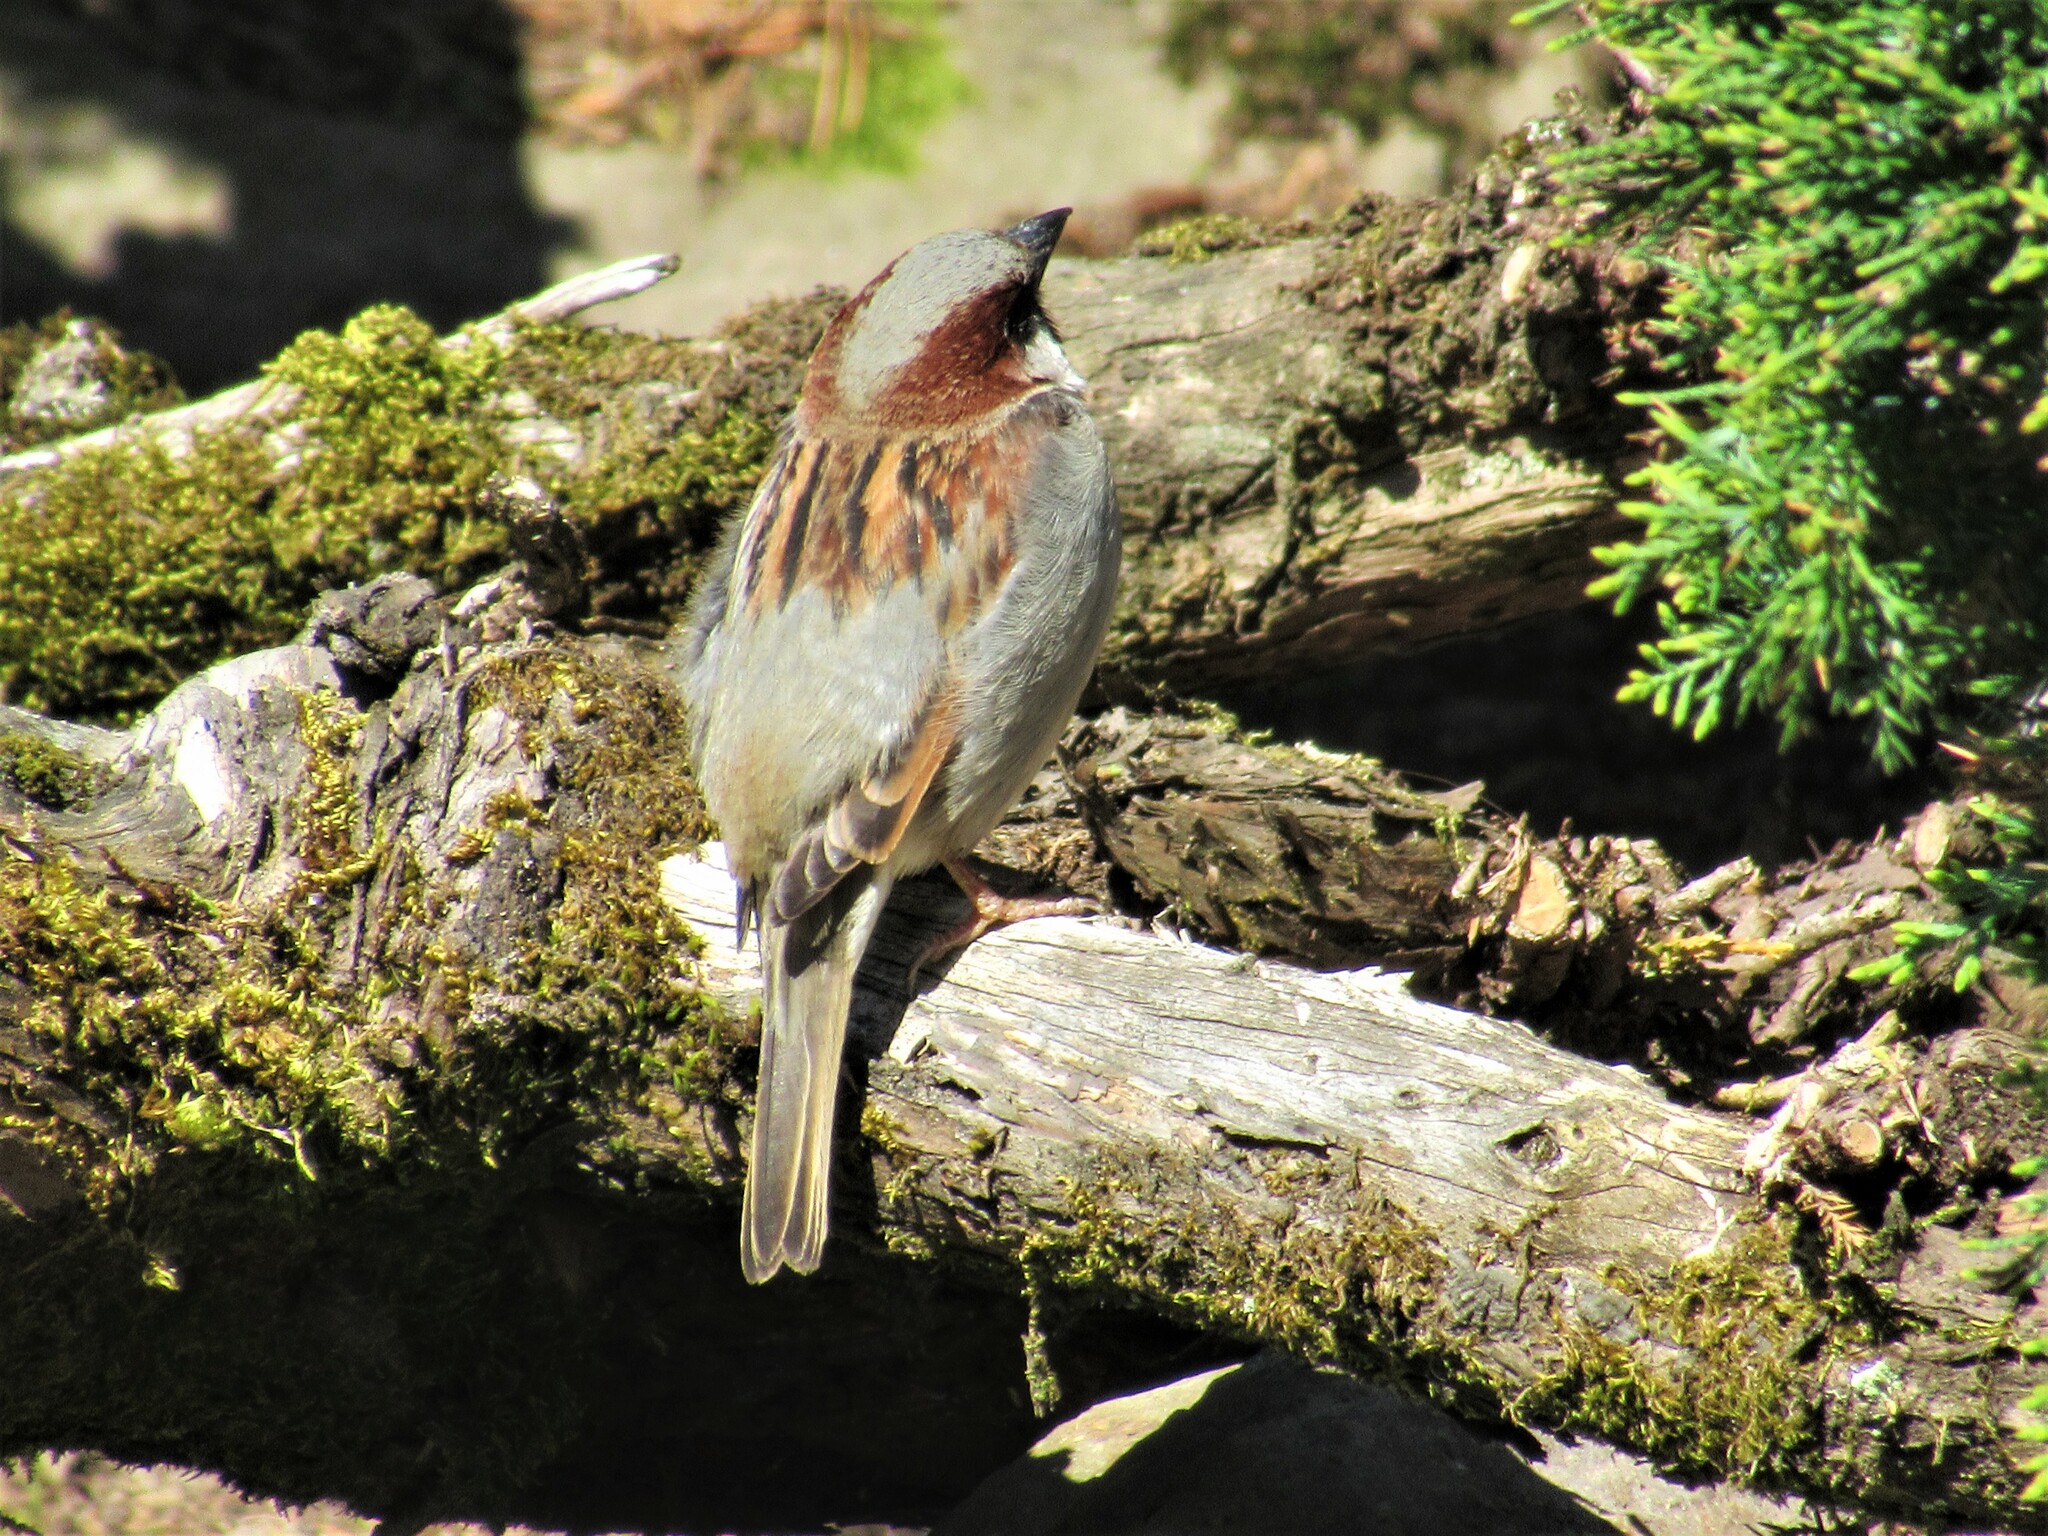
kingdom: Animalia
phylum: Chordata
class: Aves
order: Passeriformes
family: Passeridae
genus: Passer
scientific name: Passer domesticus
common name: House sparrow
